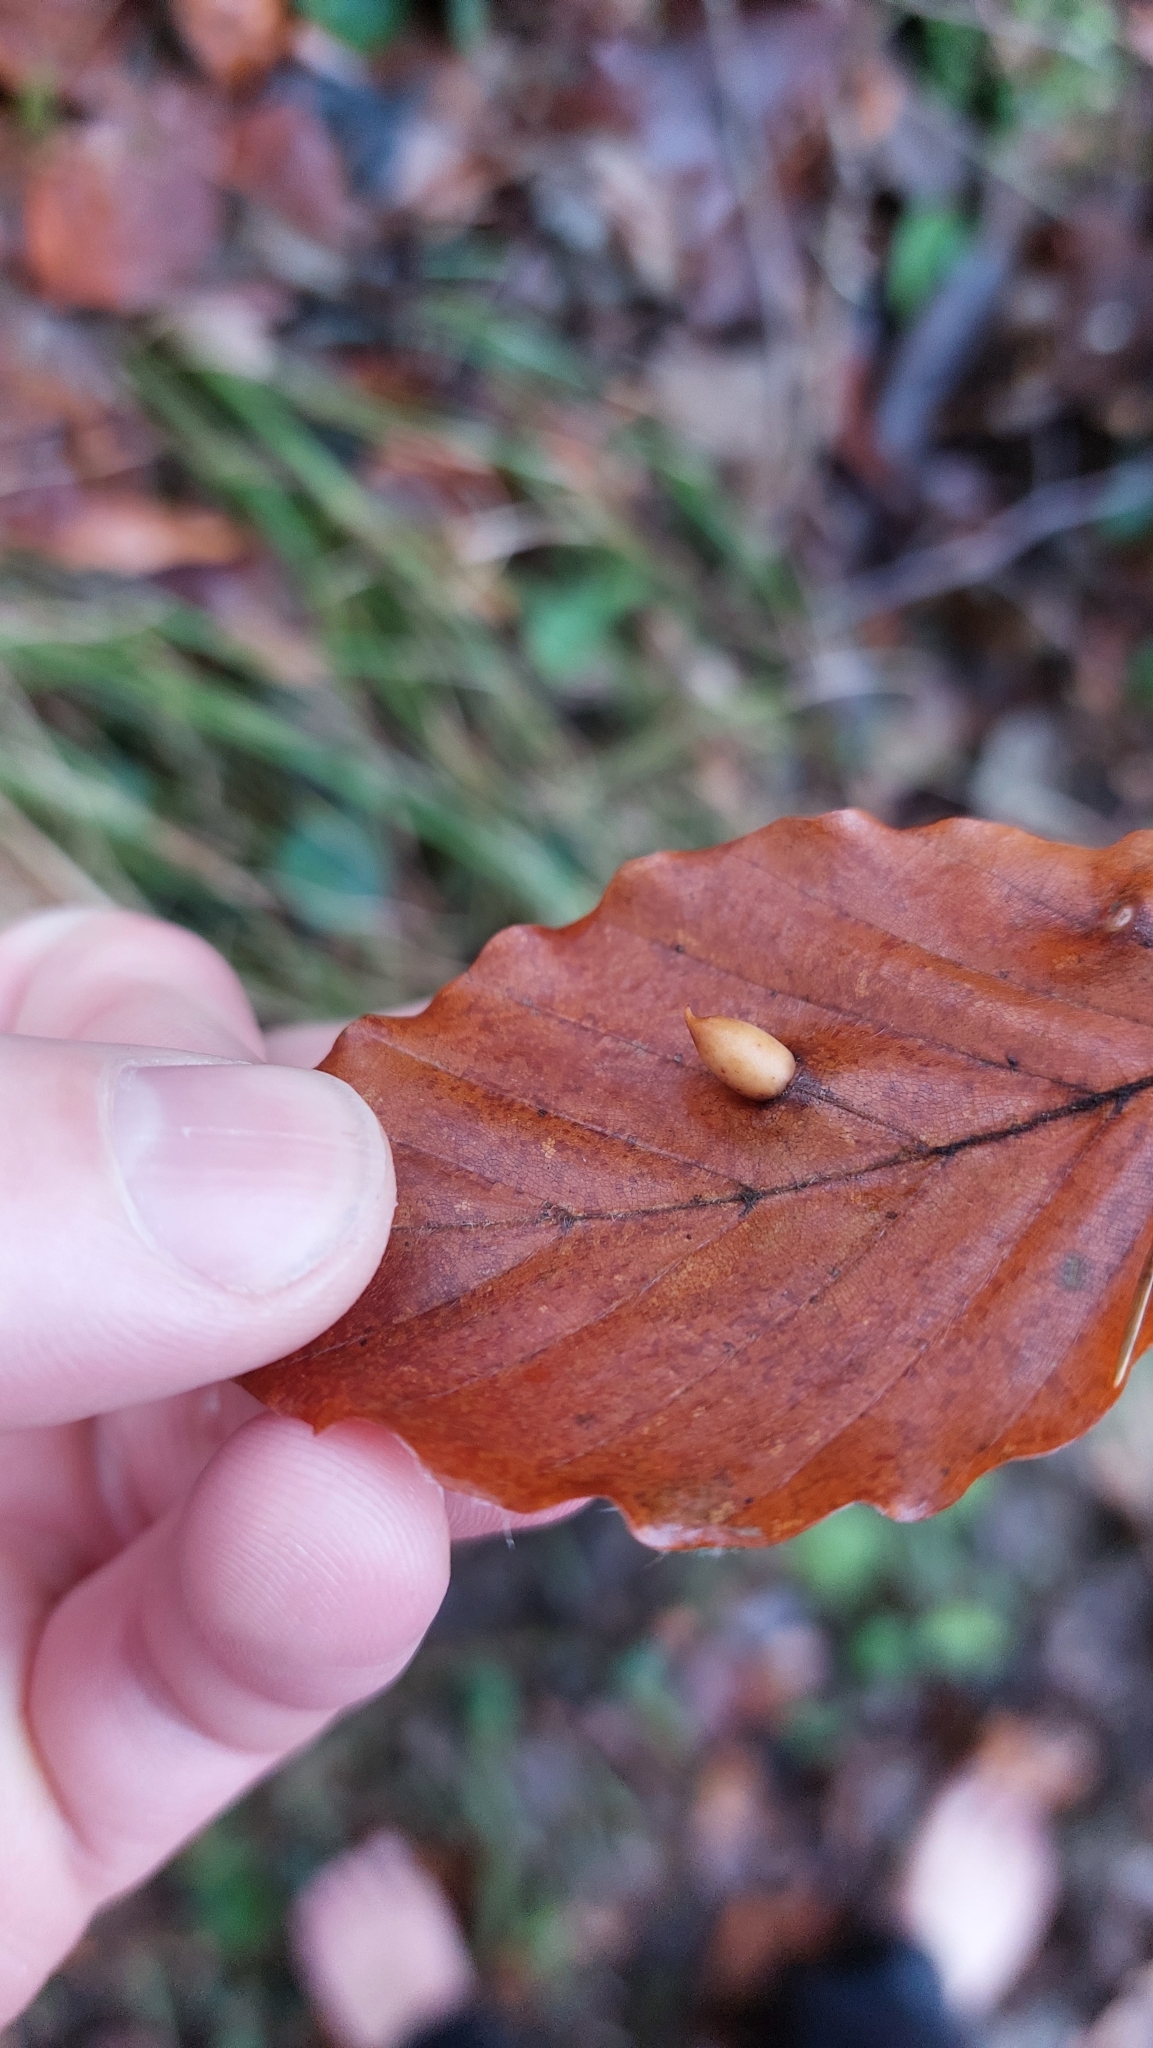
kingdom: Animalia
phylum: Arthropoda
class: Insecta
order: Diptera
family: Cecidomyiidae
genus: Mikiola
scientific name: Mikiola fagi
